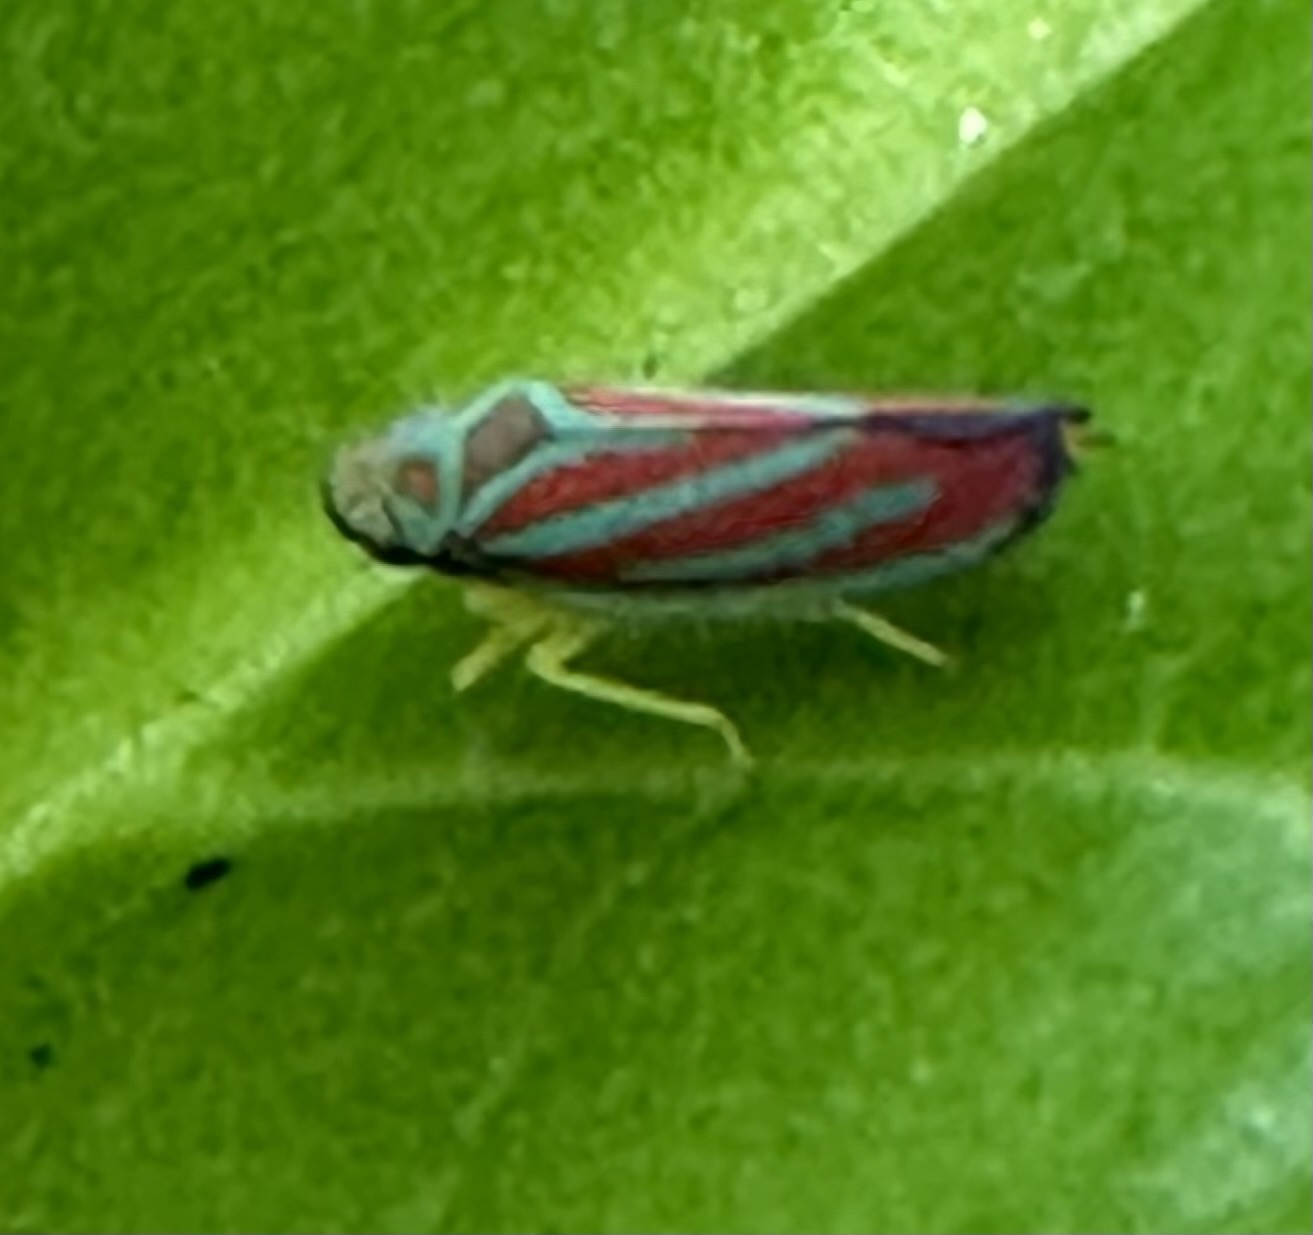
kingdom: Animalia
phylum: Arthropoda
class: Insecta
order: Hemiptera
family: Cicadellidae
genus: Graphocephala
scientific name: Graphocephala coccinea
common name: Candy-striped leafhopper
